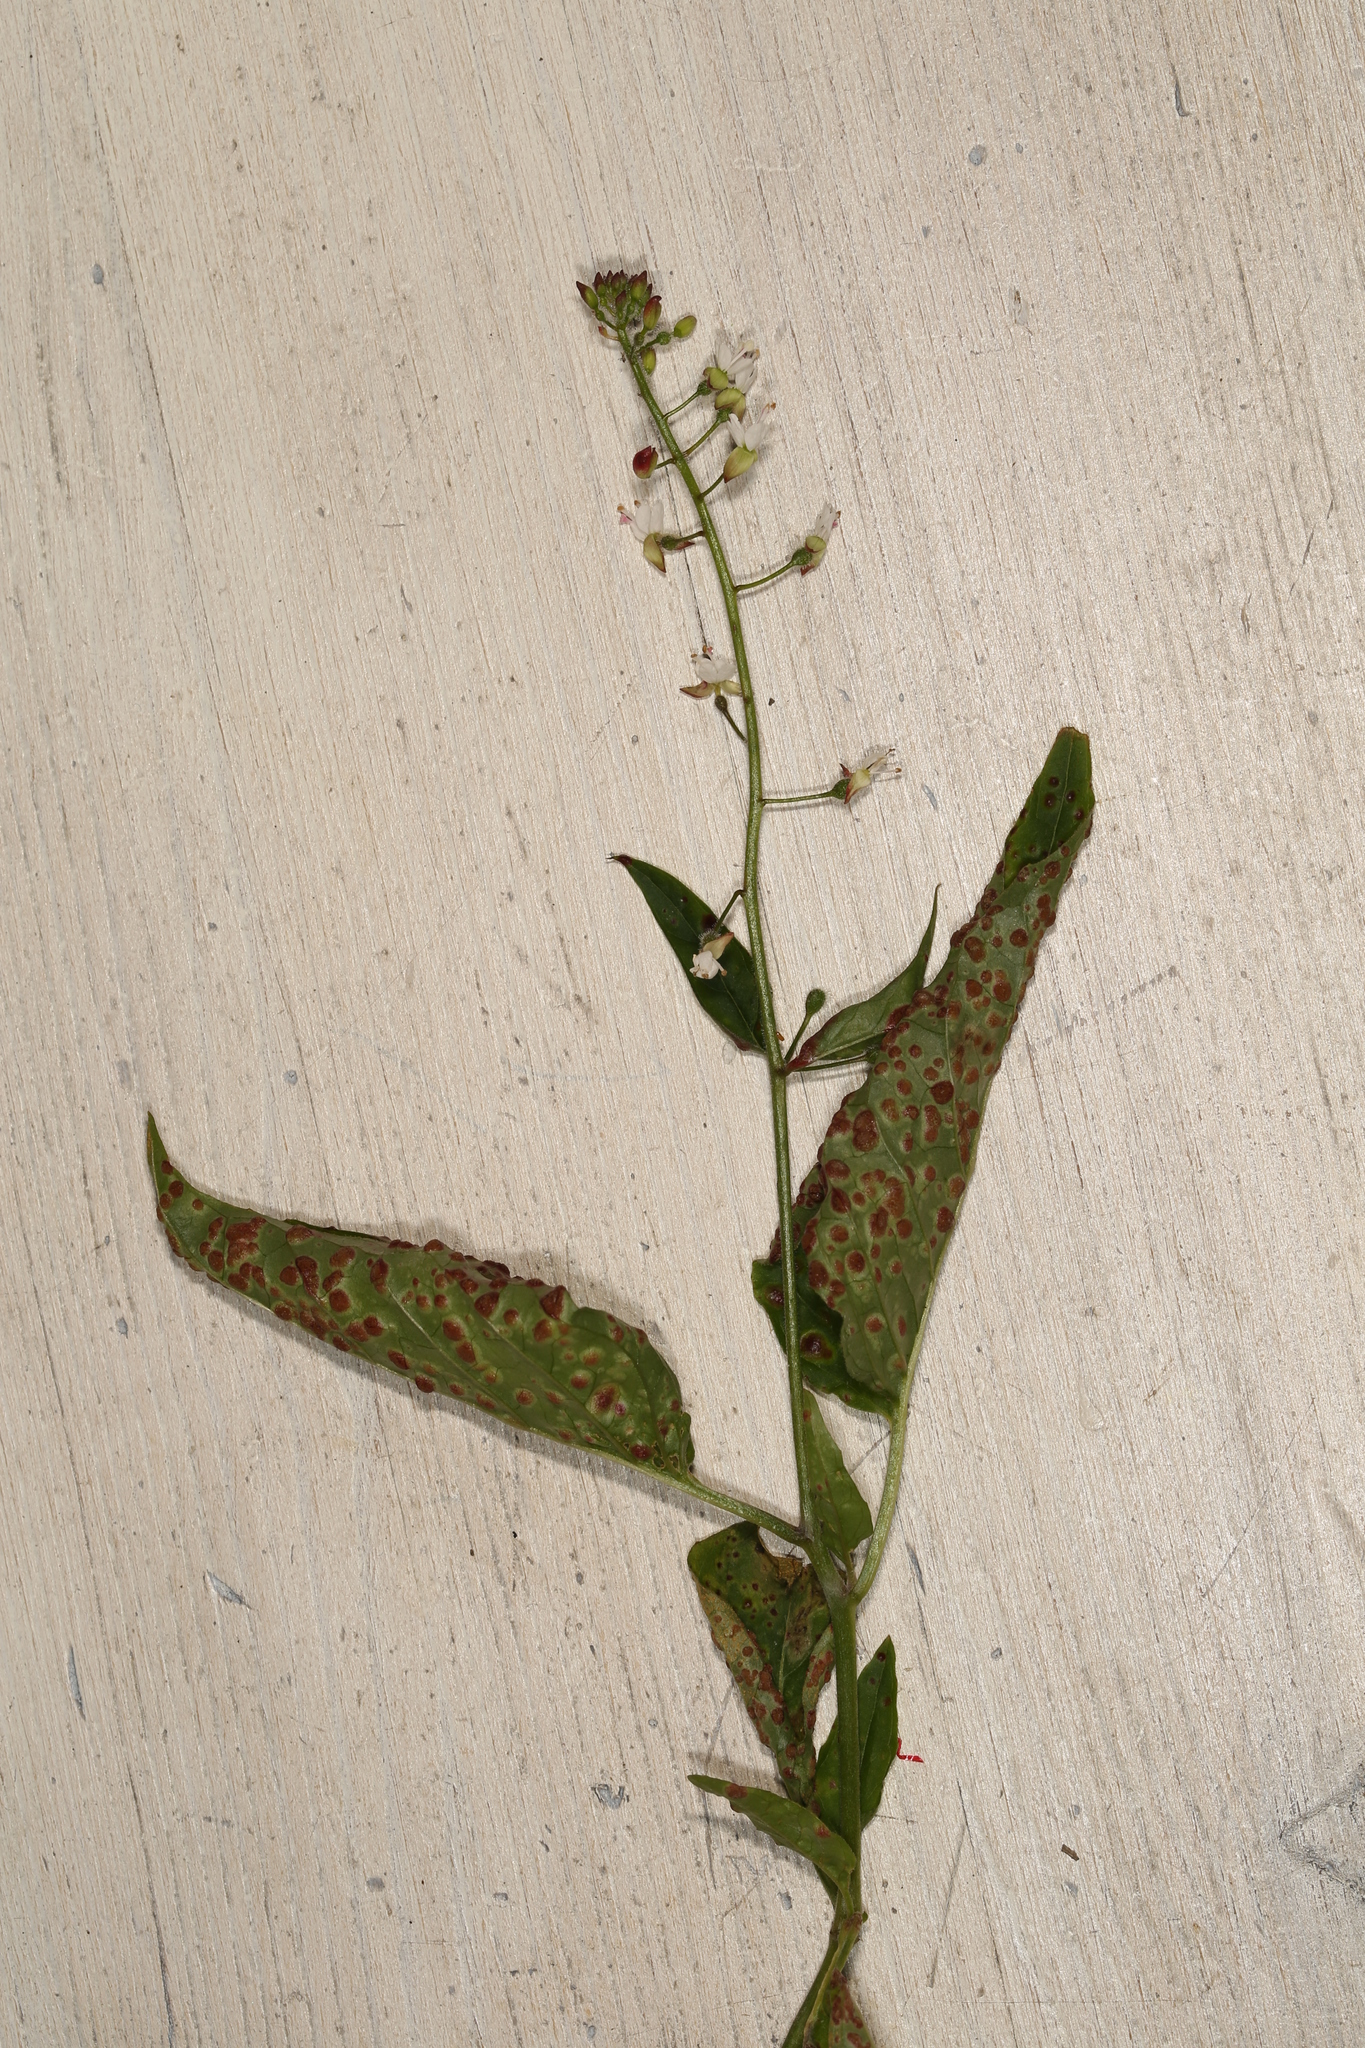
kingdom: Plantae
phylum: Tracheophyta
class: Magnoliopsida
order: Myrtales
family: Onagraceae
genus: Circaea
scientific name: Circaea lutetiana
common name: Enchanter's-nightshade
